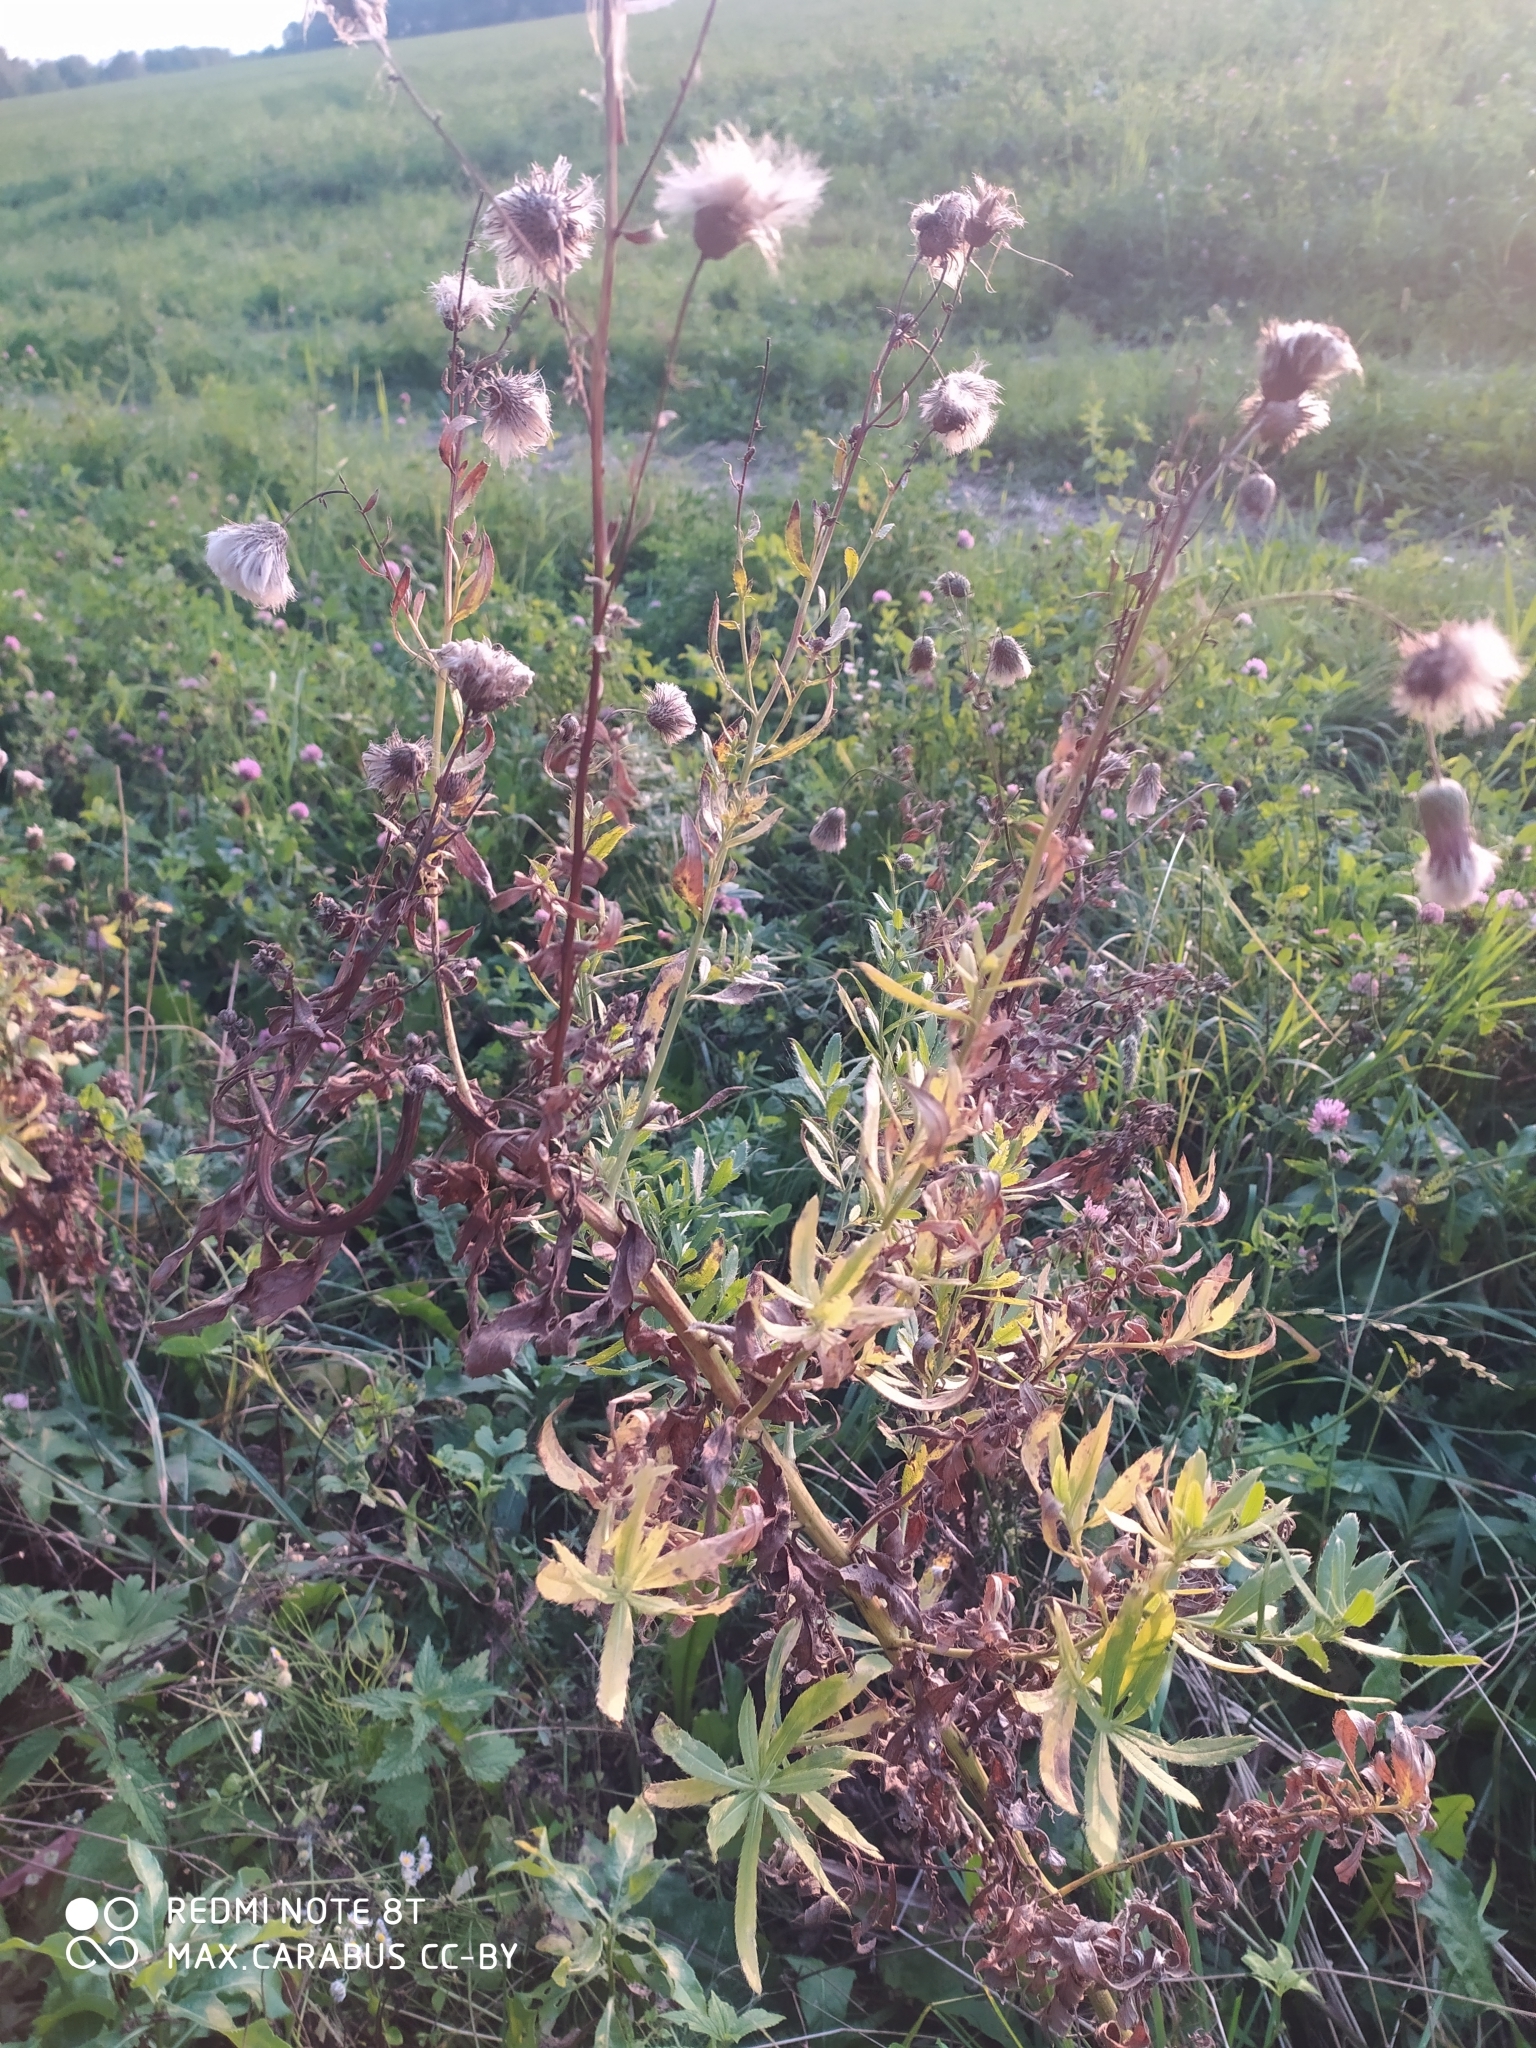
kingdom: Plantae
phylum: Tracheophyta
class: Magnoliopsida
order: Asterales
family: Asteraceae
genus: Cirsium
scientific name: Cirsium arvense
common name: Creeping thistle
